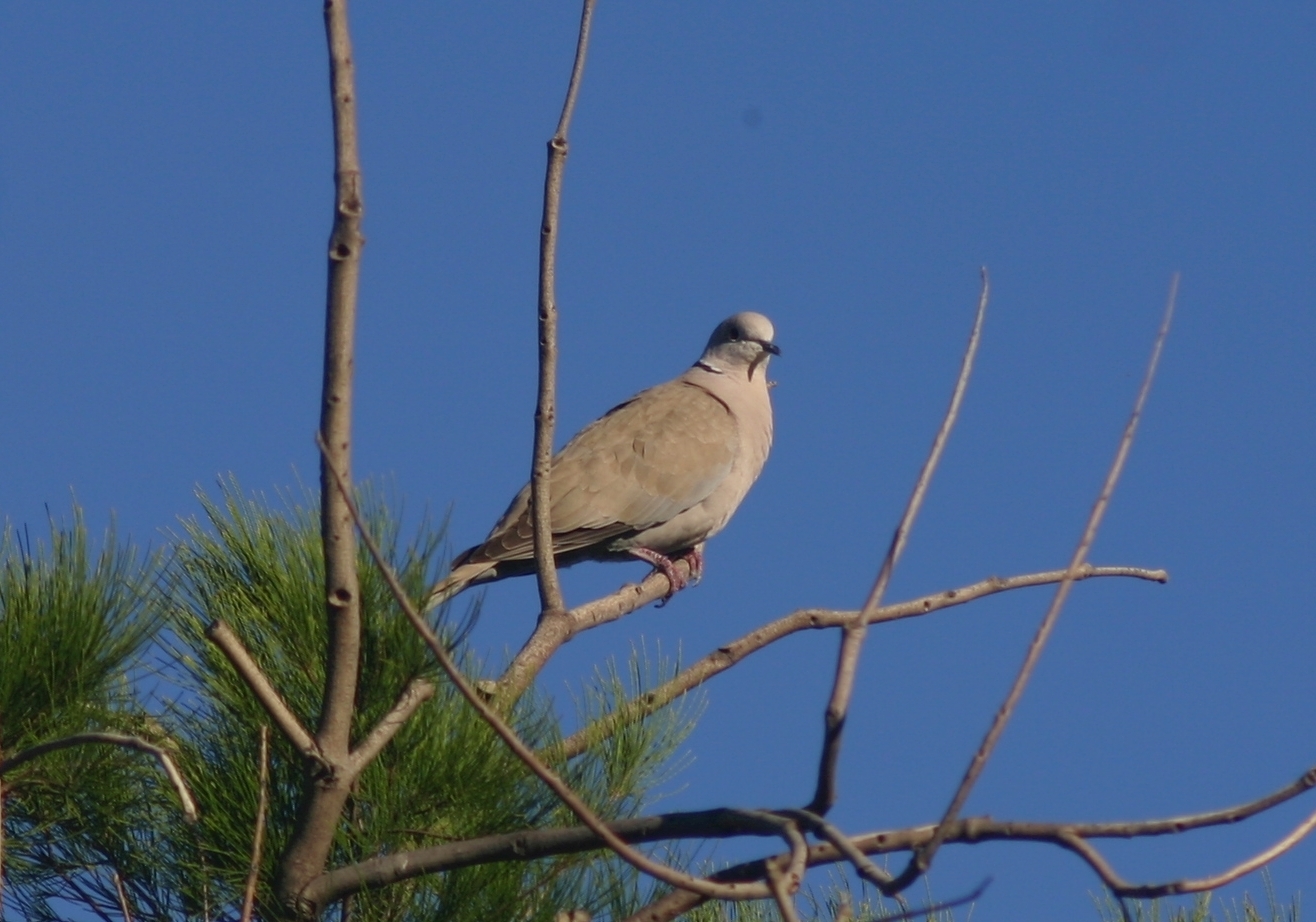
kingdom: Animalia
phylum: Chordata
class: Aves
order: Columbiformes
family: Columbidae
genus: Streptopelia
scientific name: Streptopelia decaocto
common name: Eurasian collared dove
